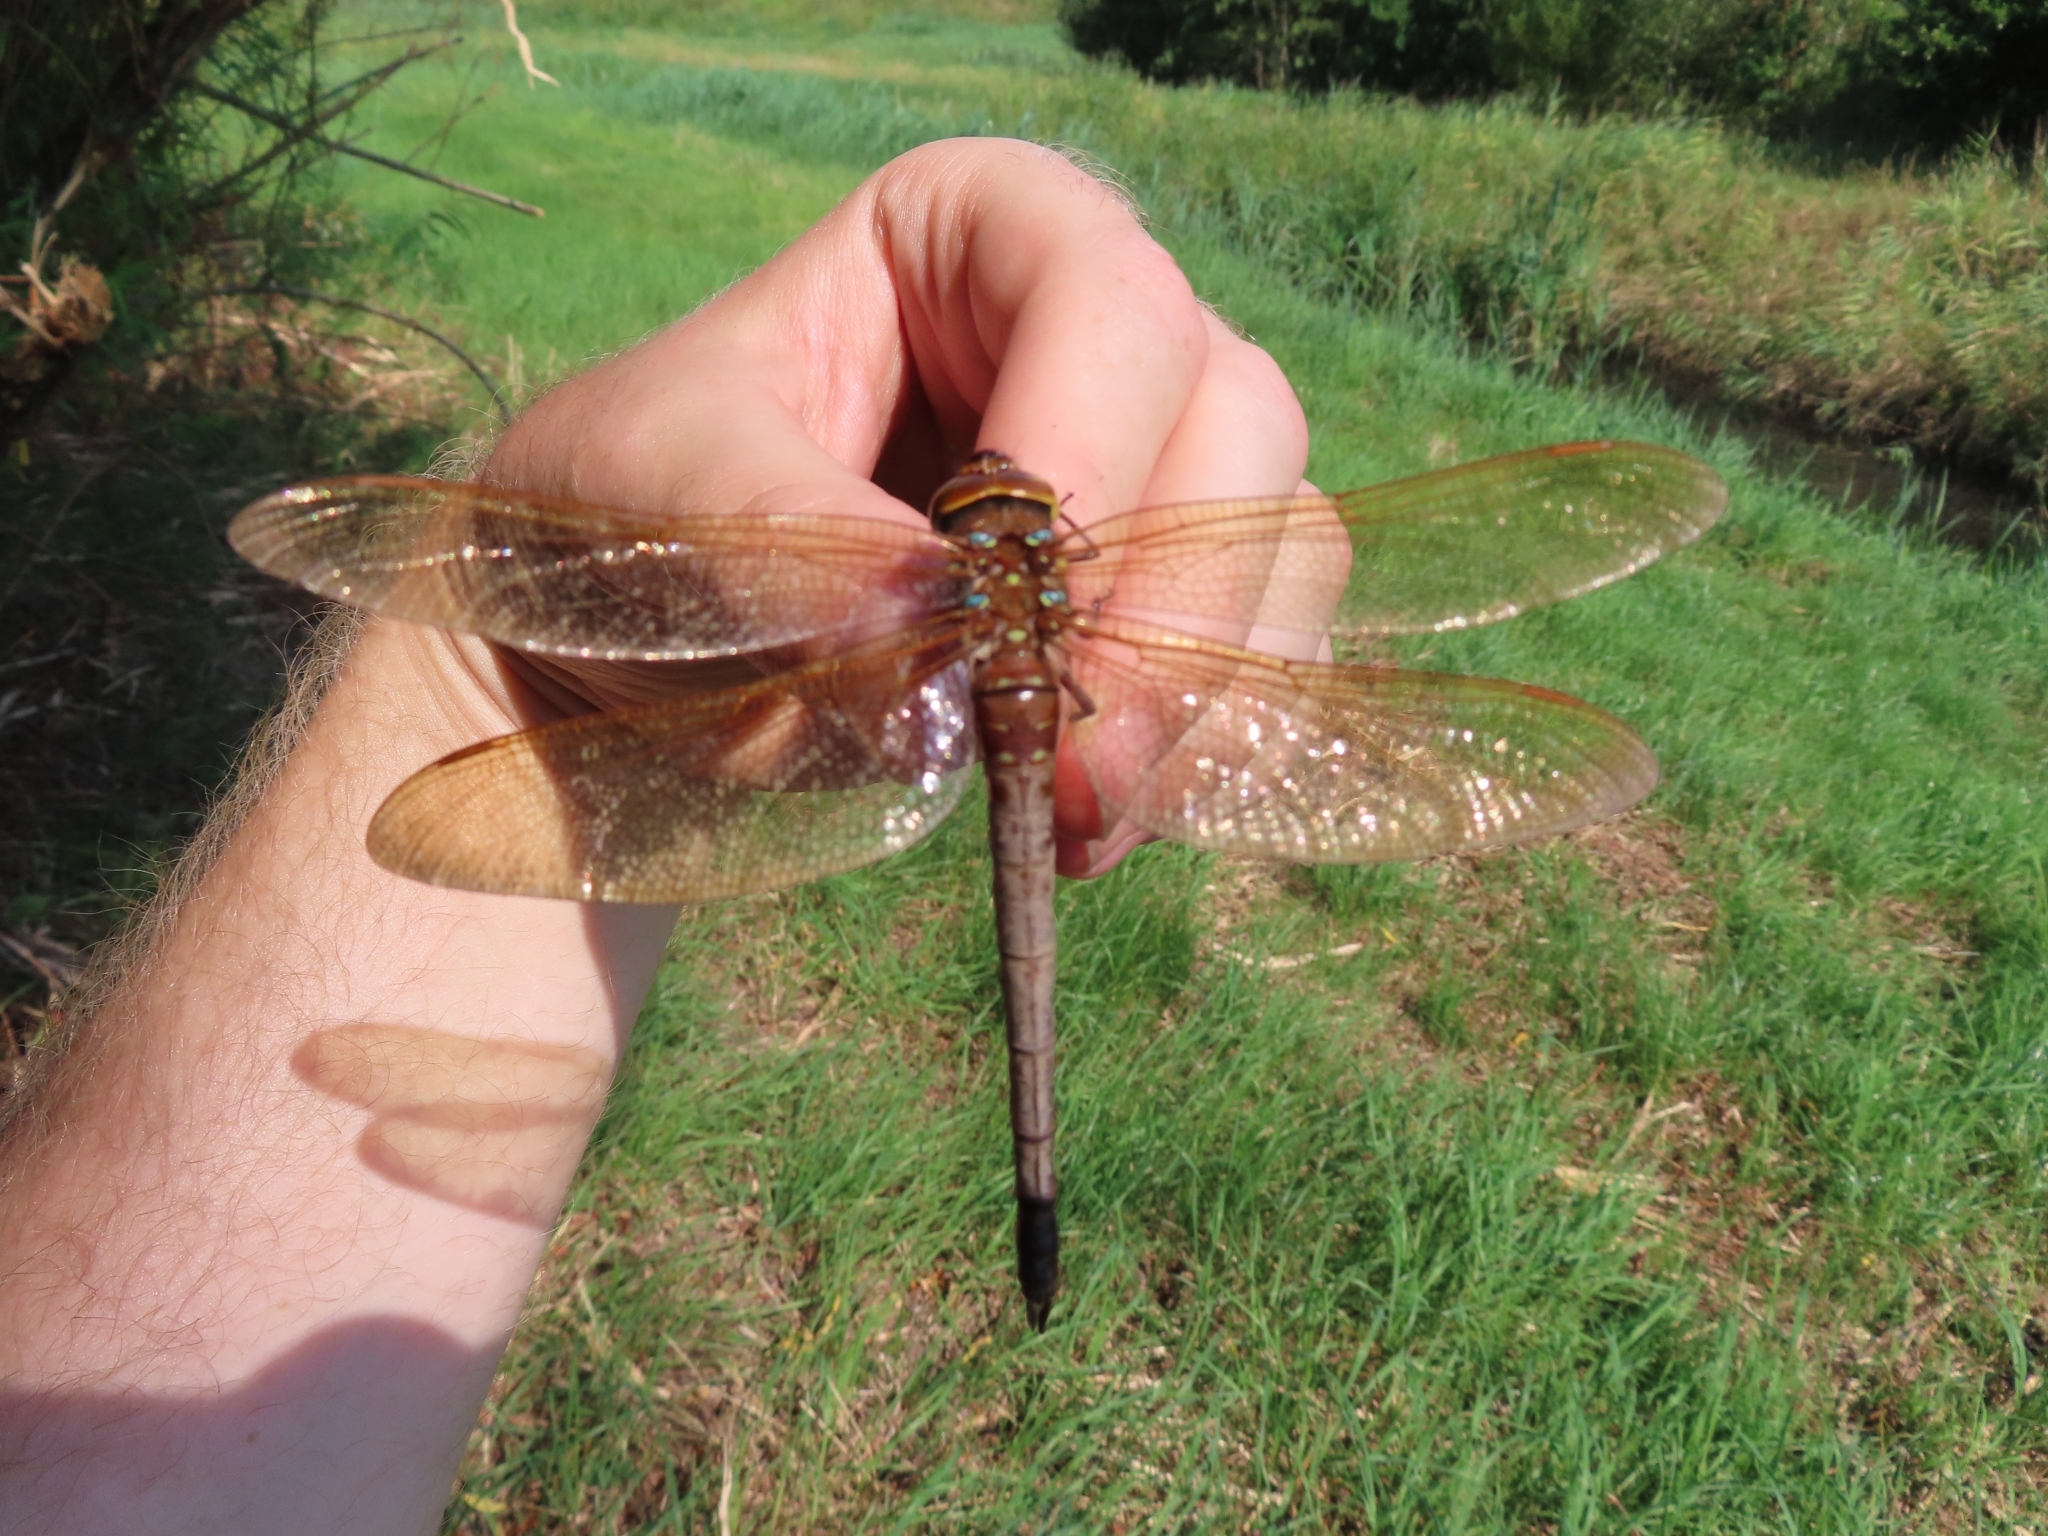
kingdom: Animalia
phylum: Arthropoda
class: Insecta
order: Odonata
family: Aeshnidae
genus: Aeshna
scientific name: Aeshna grandis
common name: Brown hawker
